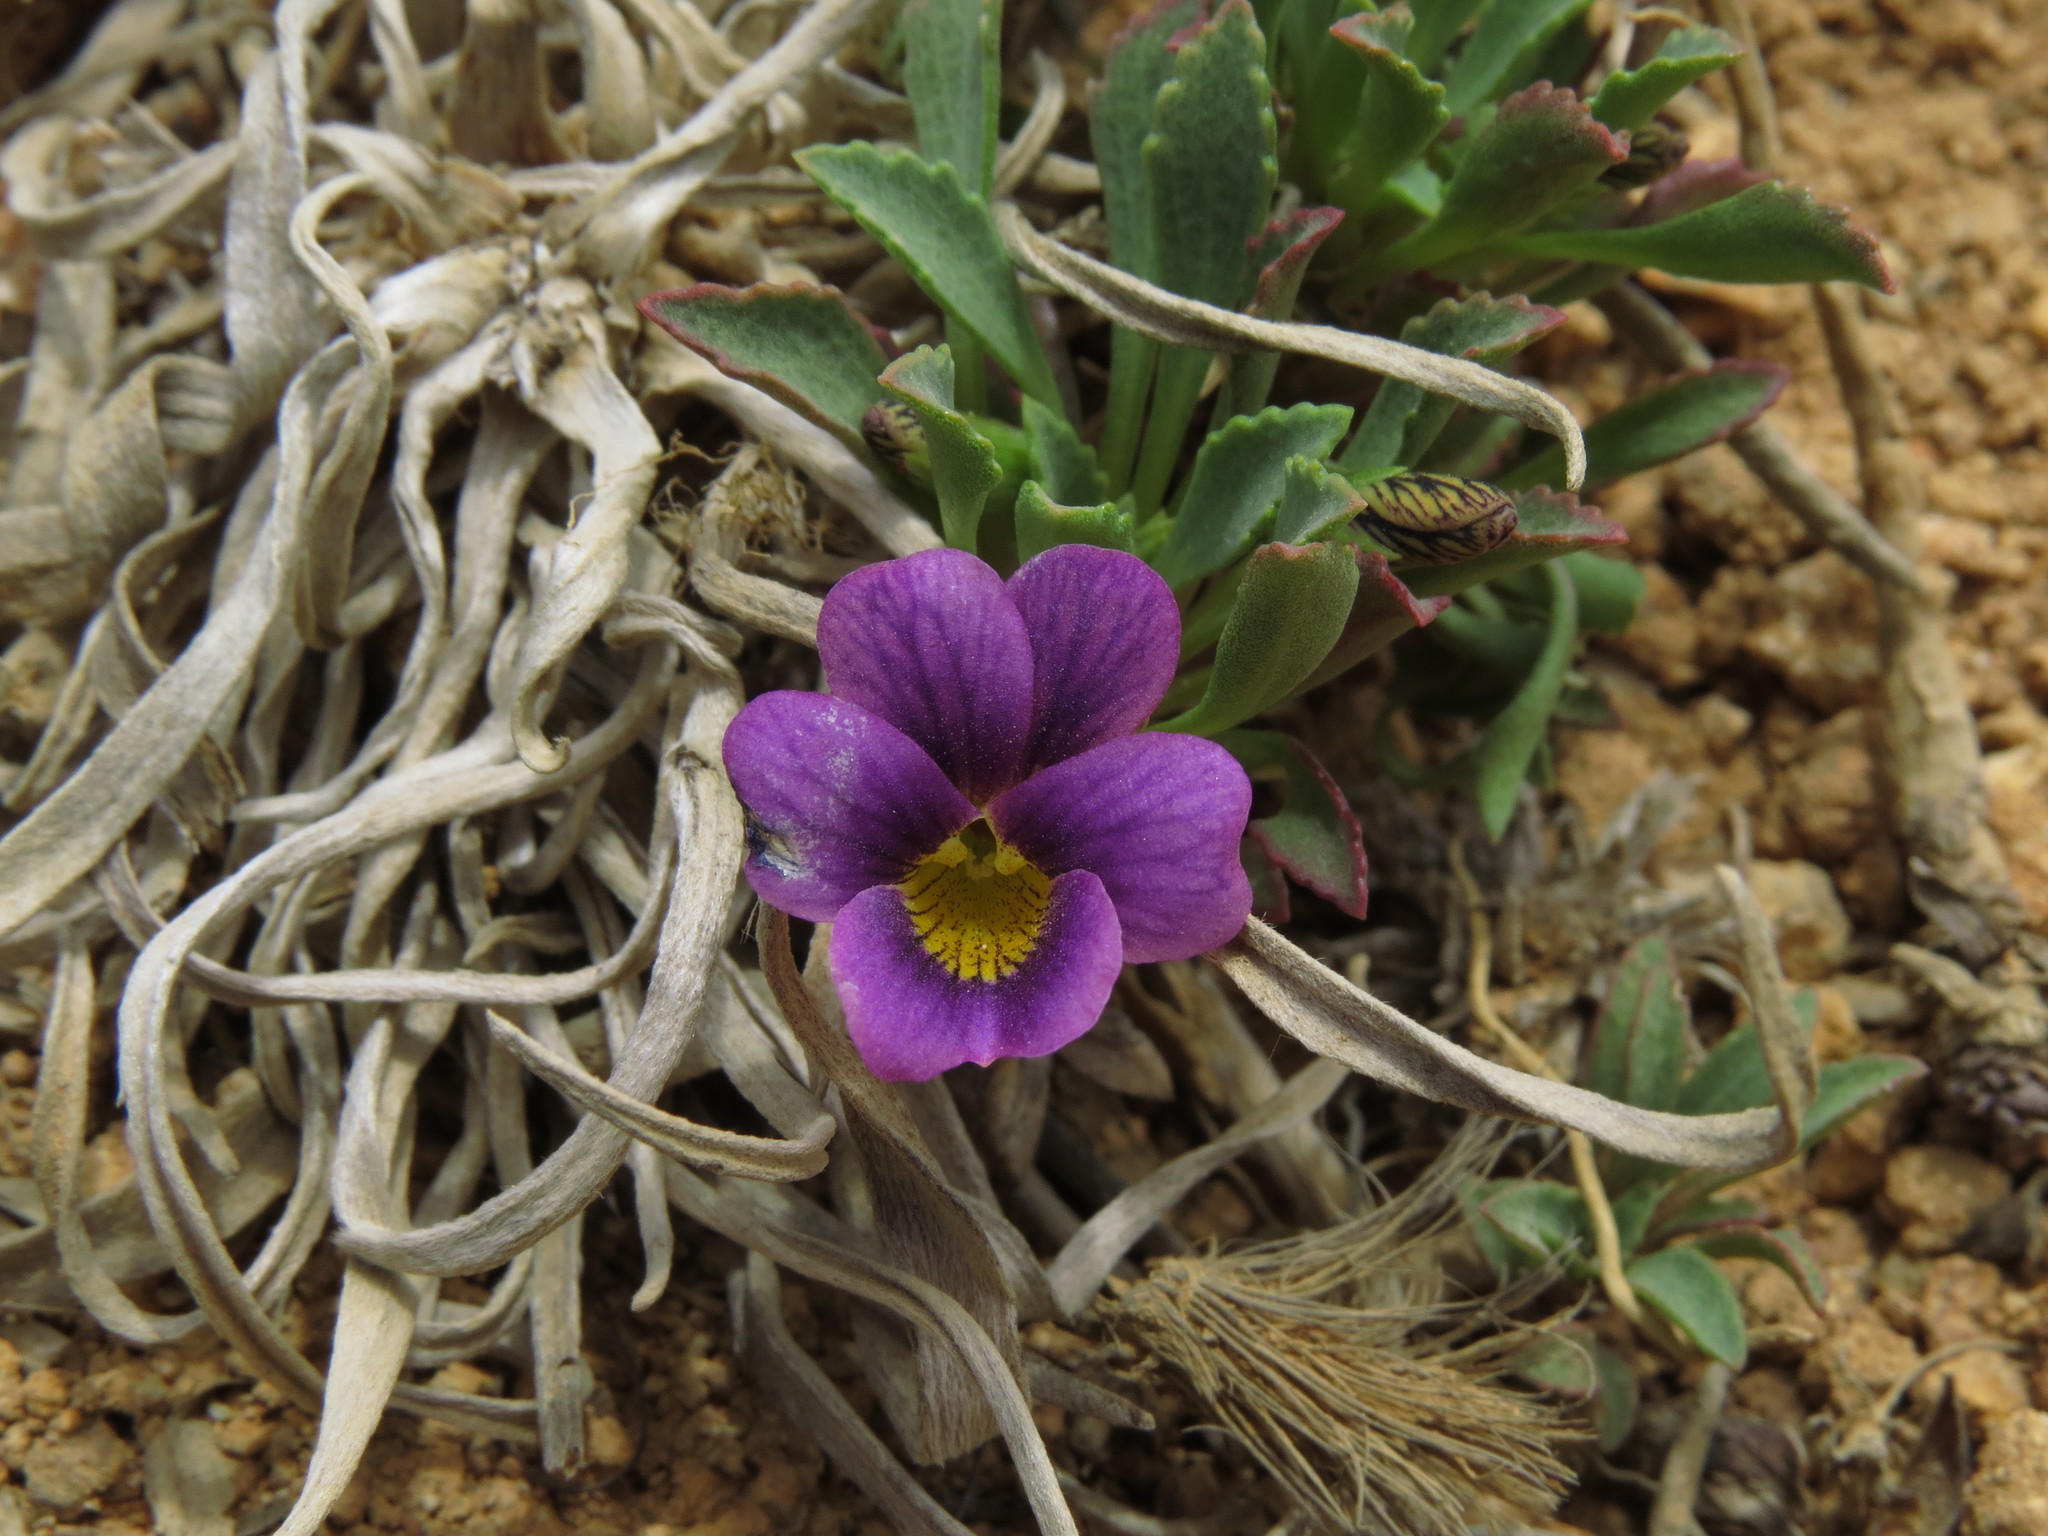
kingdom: Plantae
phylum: Tracheophyta
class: Magnoliopsida
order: Malpighiales
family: Violaceae
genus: Viola
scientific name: Viola truncata
